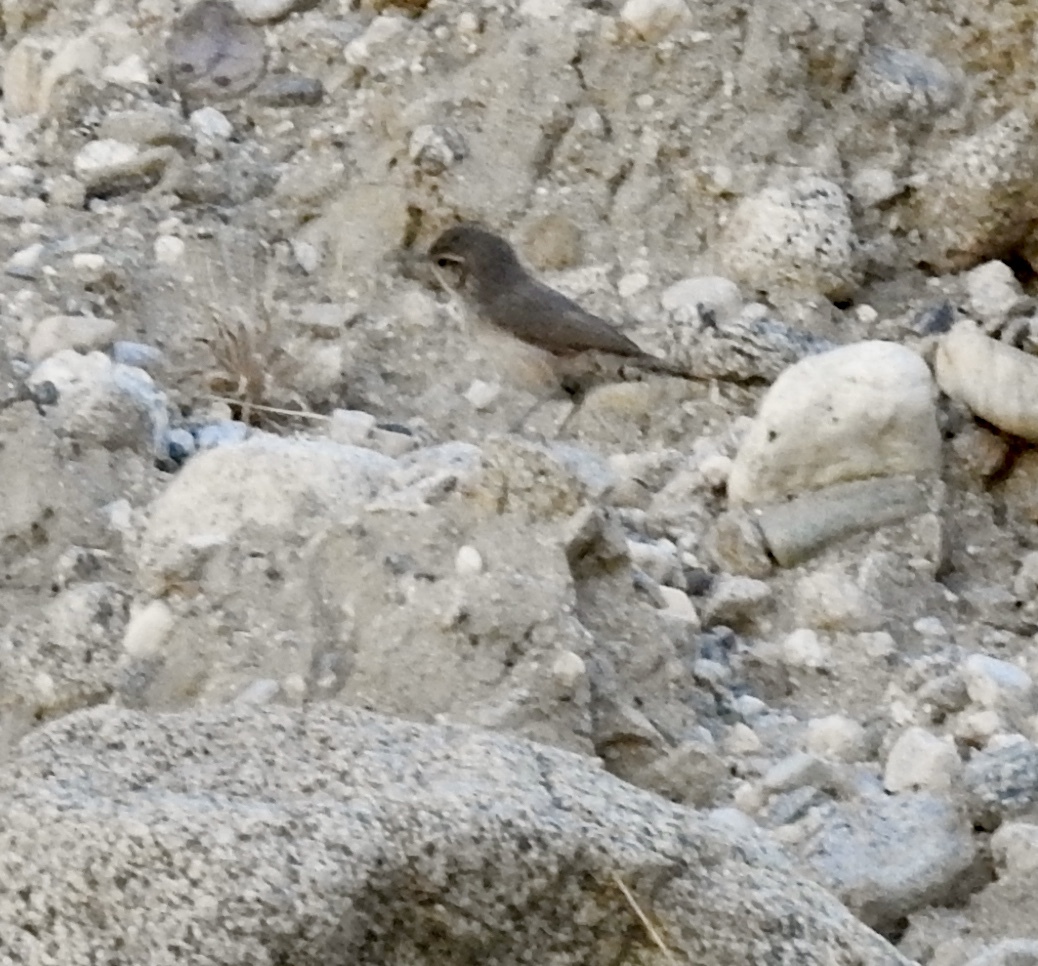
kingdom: Animalia
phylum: Chordata
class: Aves
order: Passeriformes
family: Troglodytidae
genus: Salpinctes
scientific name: Salpinctes obsoletus
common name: Rock wren
